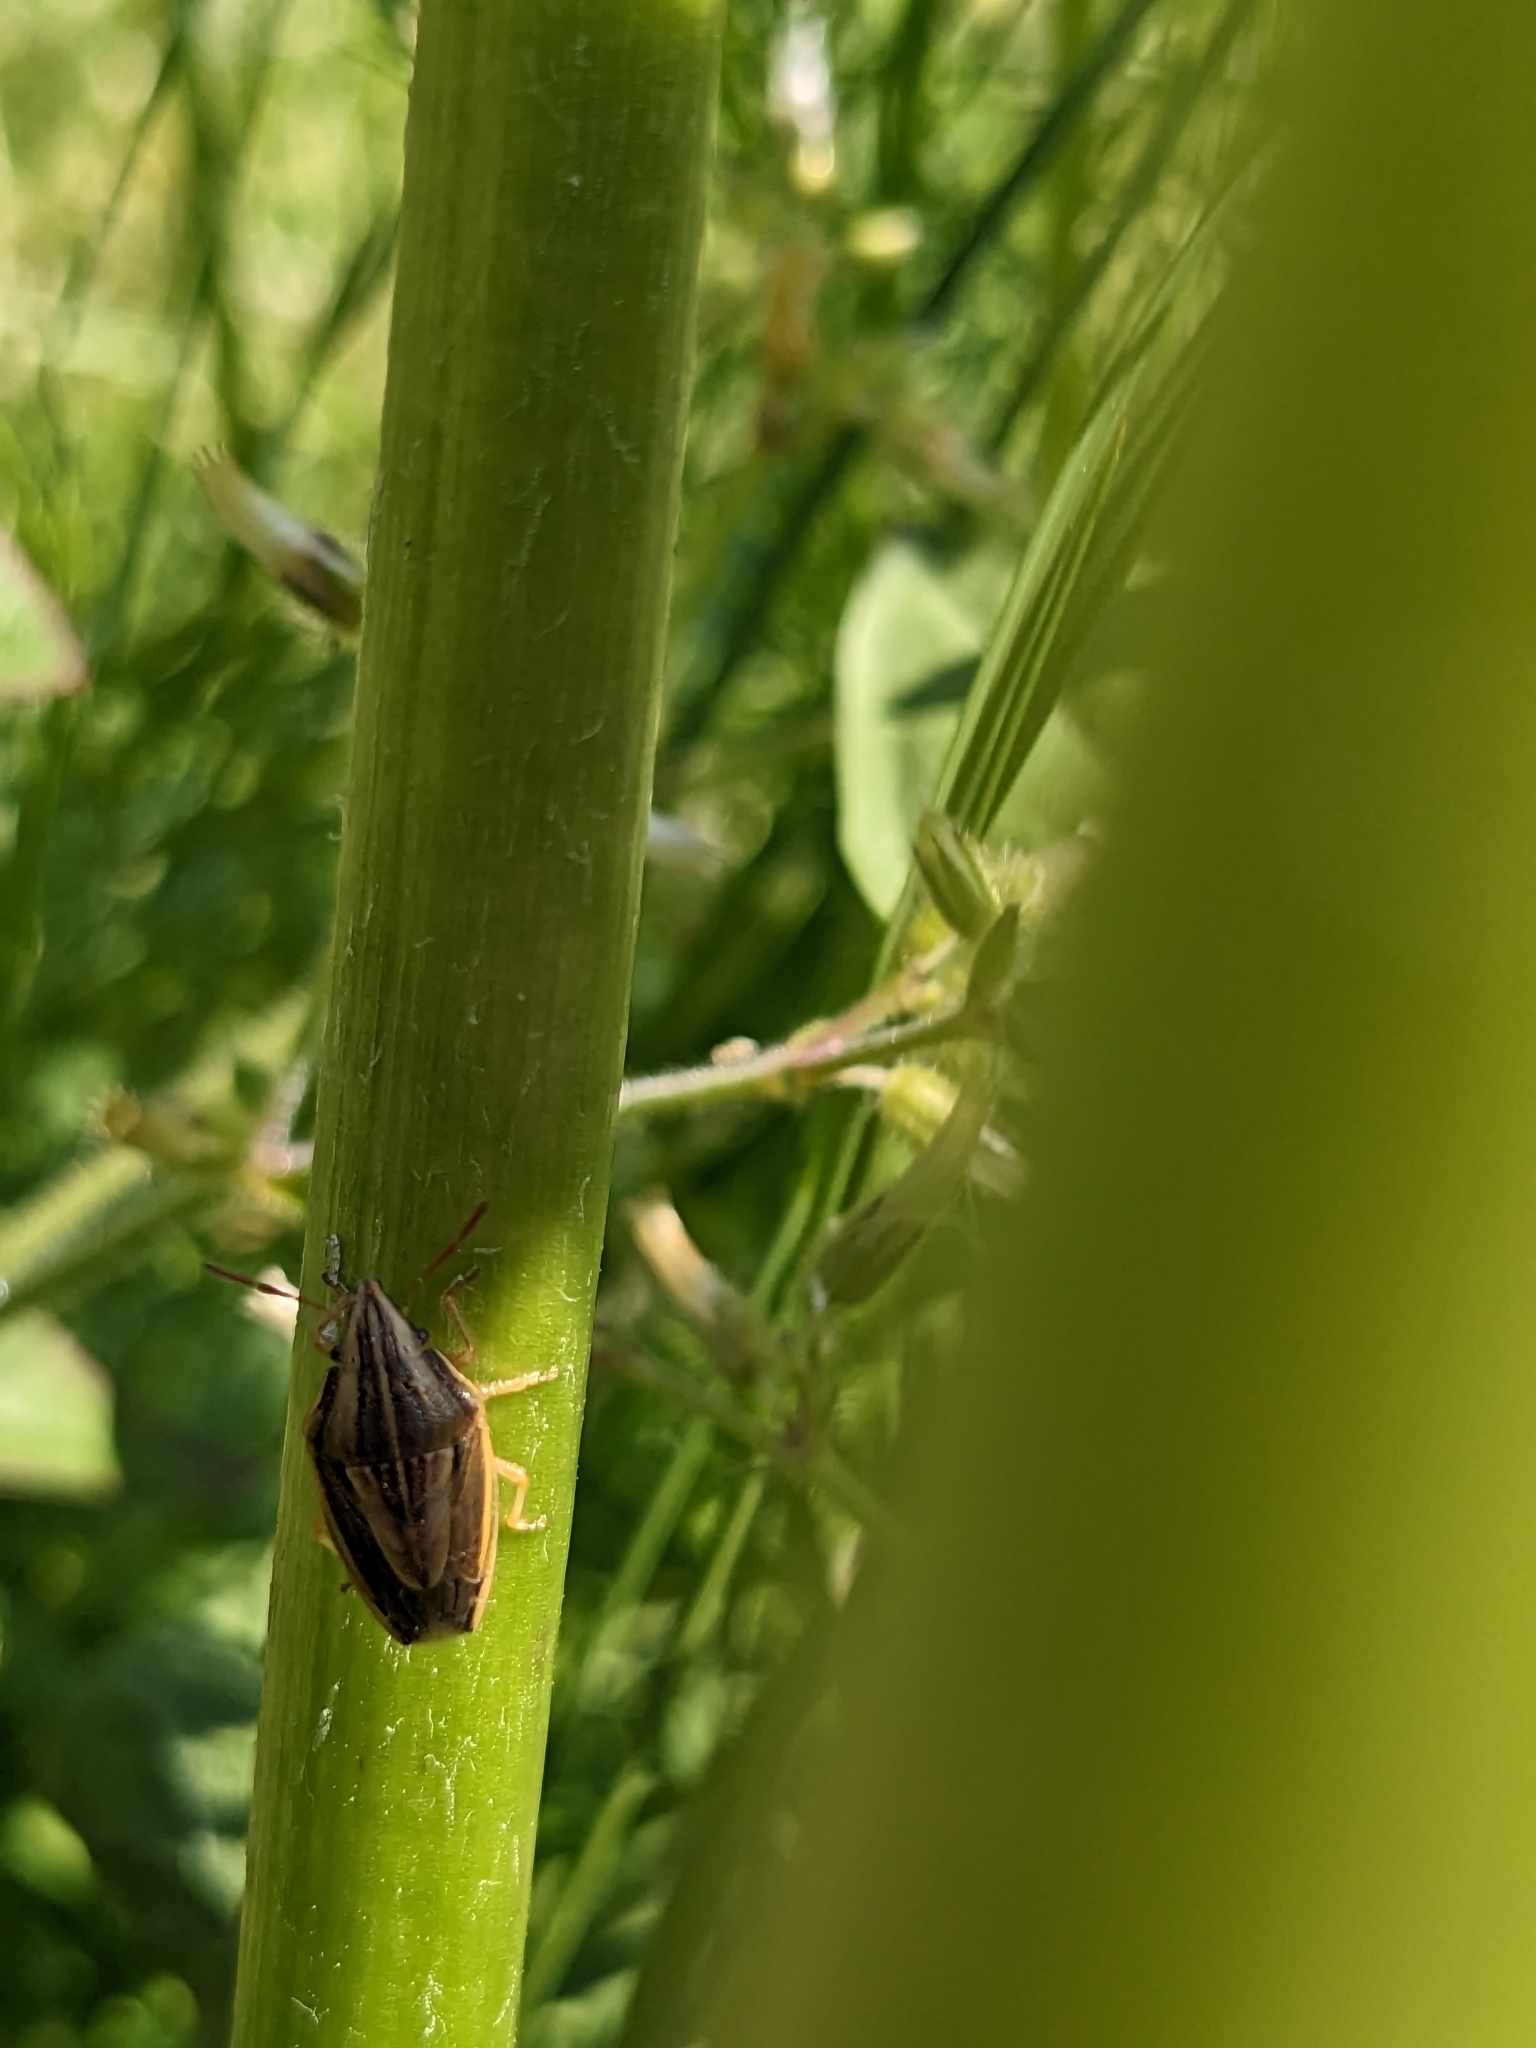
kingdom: Animalia
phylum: Arthropoda
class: Insecta
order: Hemiptera
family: Pentatomidae
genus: Aelia
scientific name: Aelia acuminata
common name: Bishop's mitre
